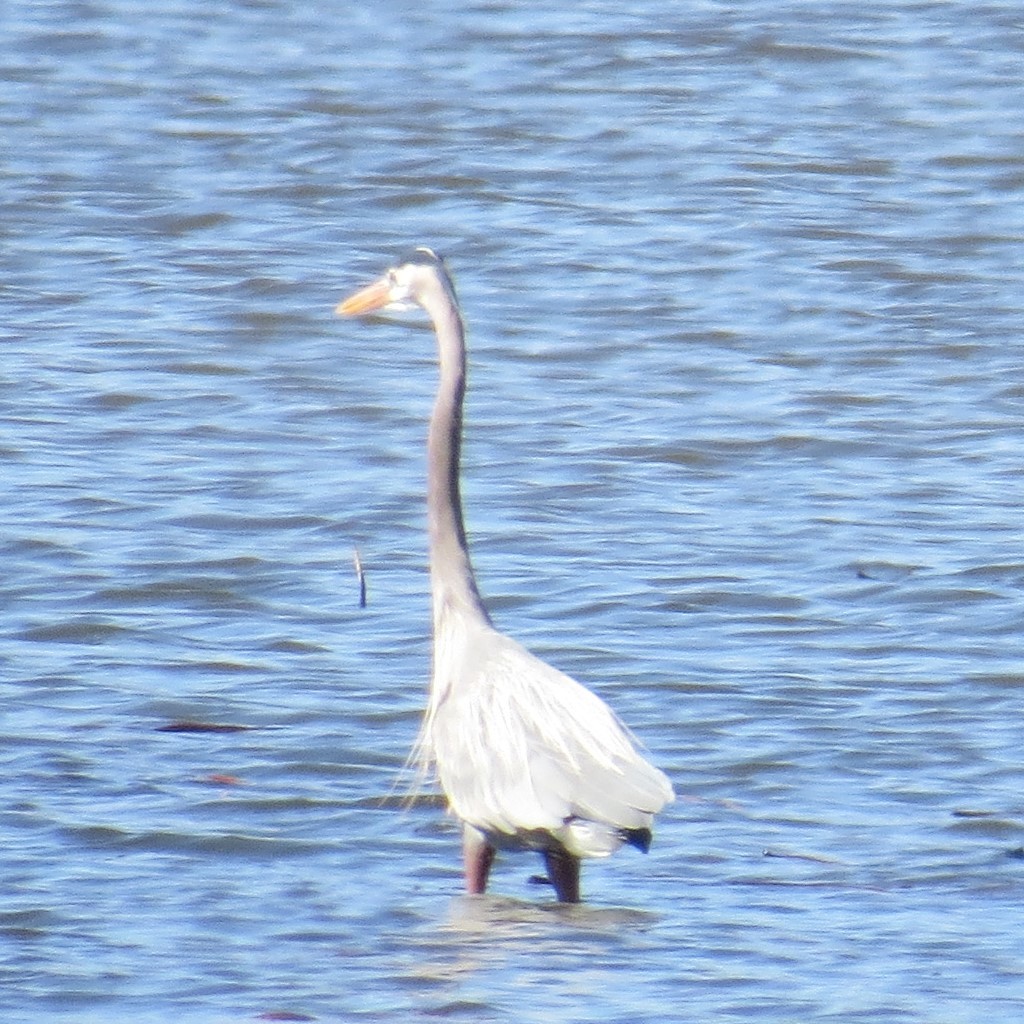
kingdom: Animalia
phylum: Chordata
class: Aves
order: Pelecaniformes
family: Ardeidae
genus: Ardea
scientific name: Ardea herodias
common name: Great blue heron
